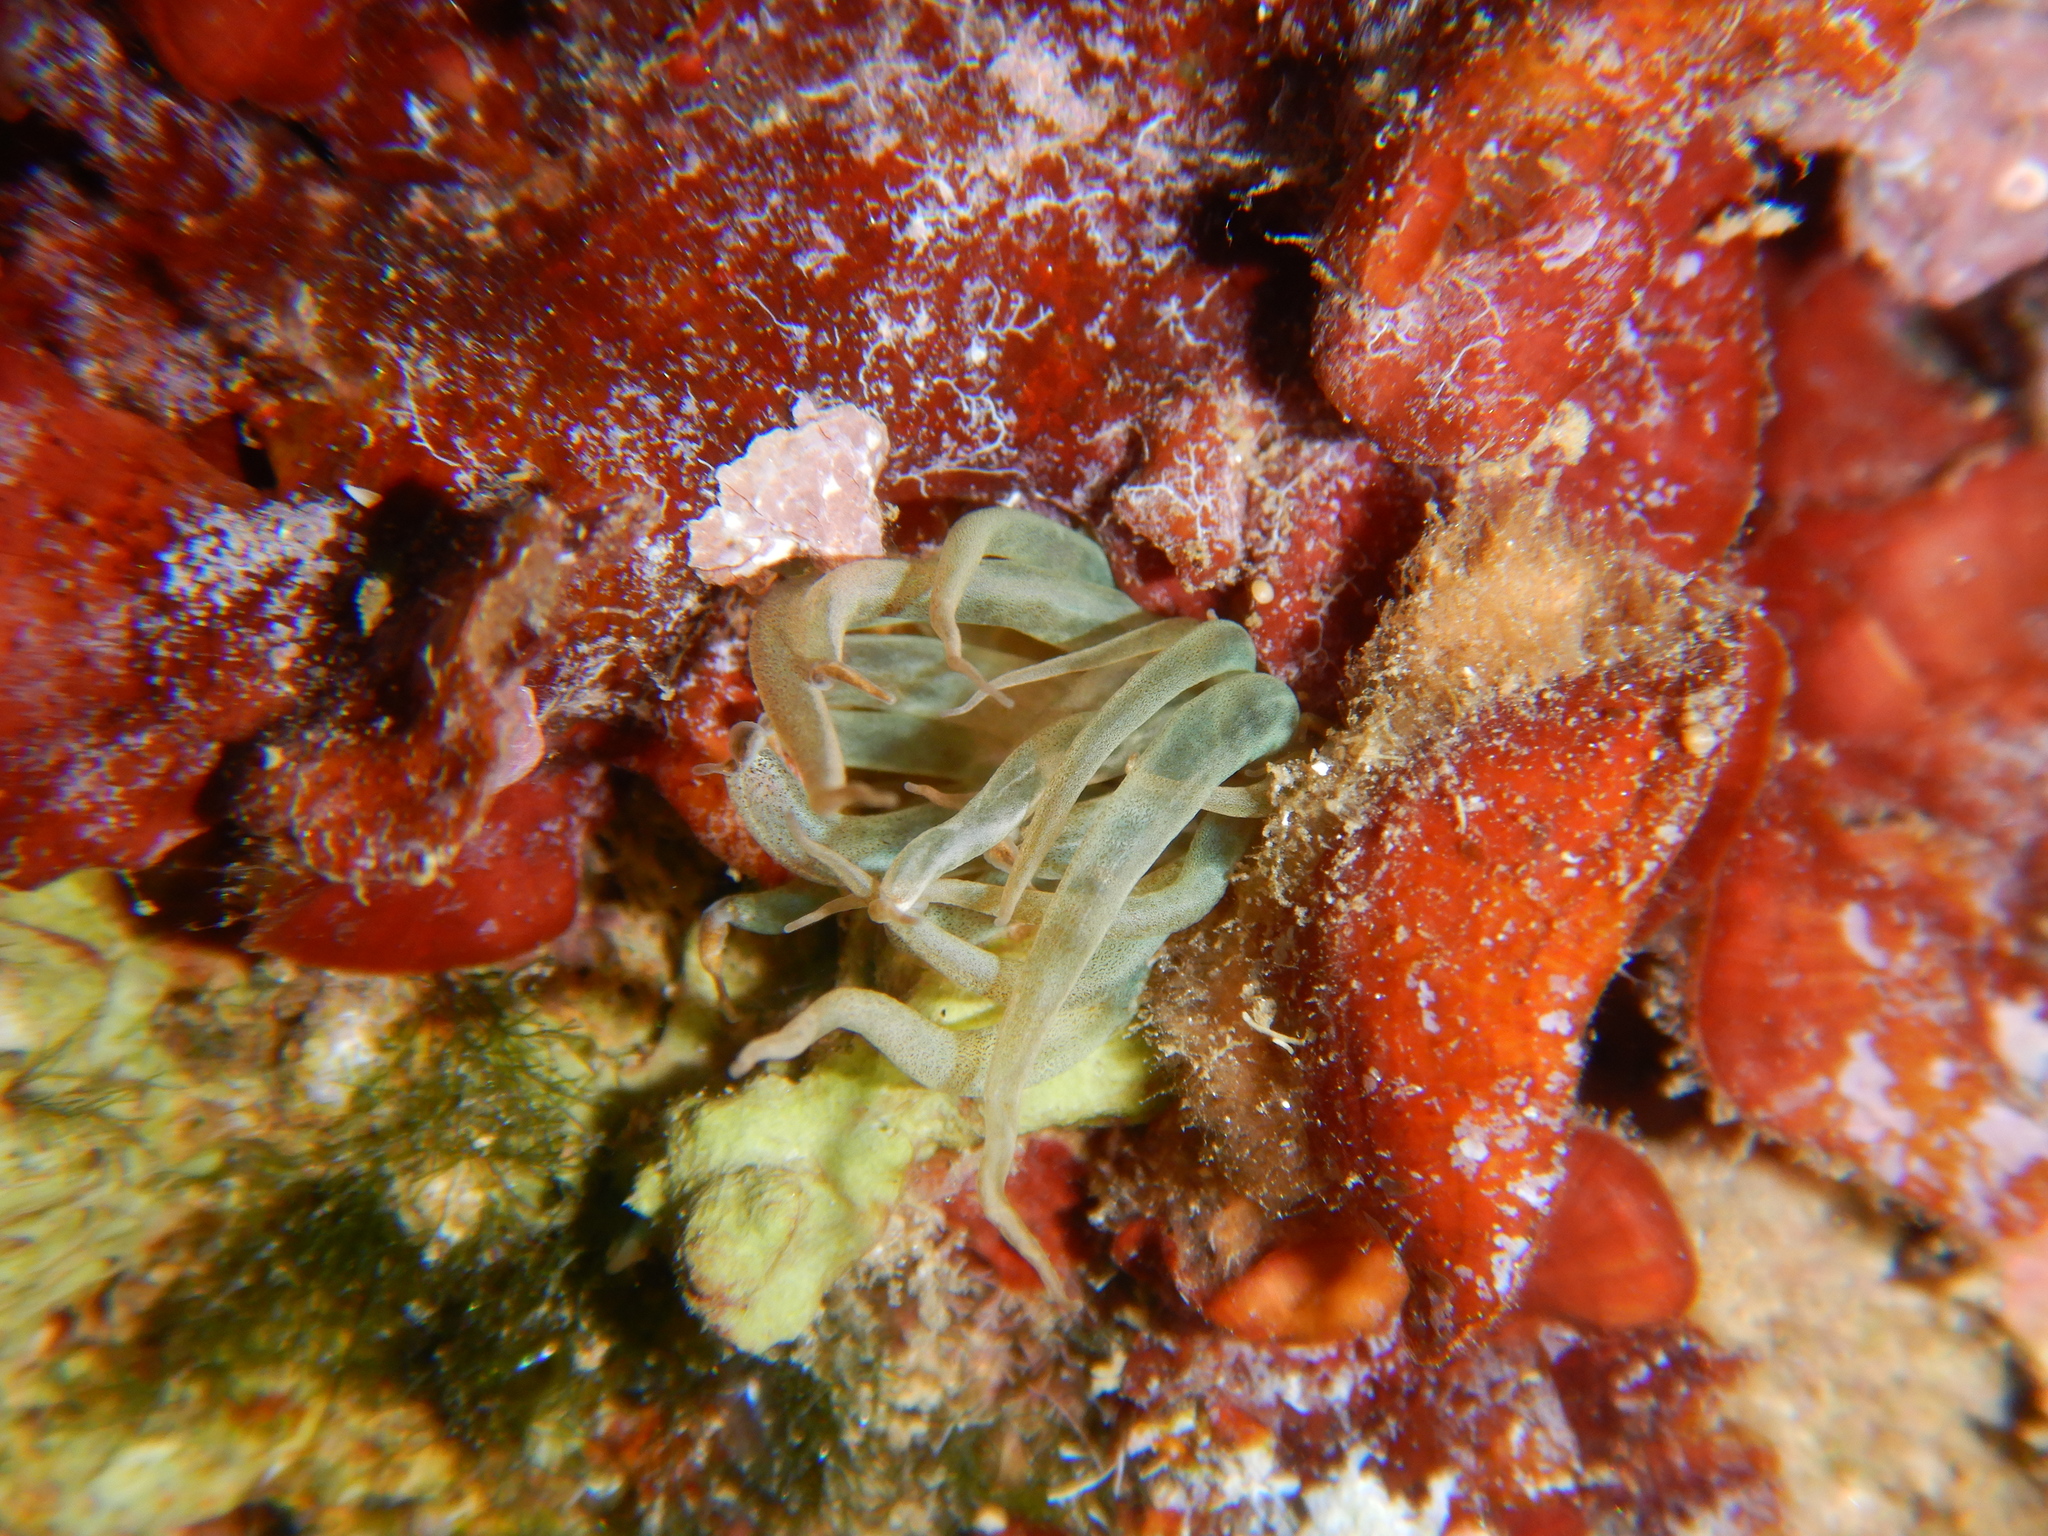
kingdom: Animalia
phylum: Cnidaria
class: Anthozoa
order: Actiniaria
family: Aiptasiidae
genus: Aiptasia
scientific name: Aiptasia mutabilis
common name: Trumpet anemone
